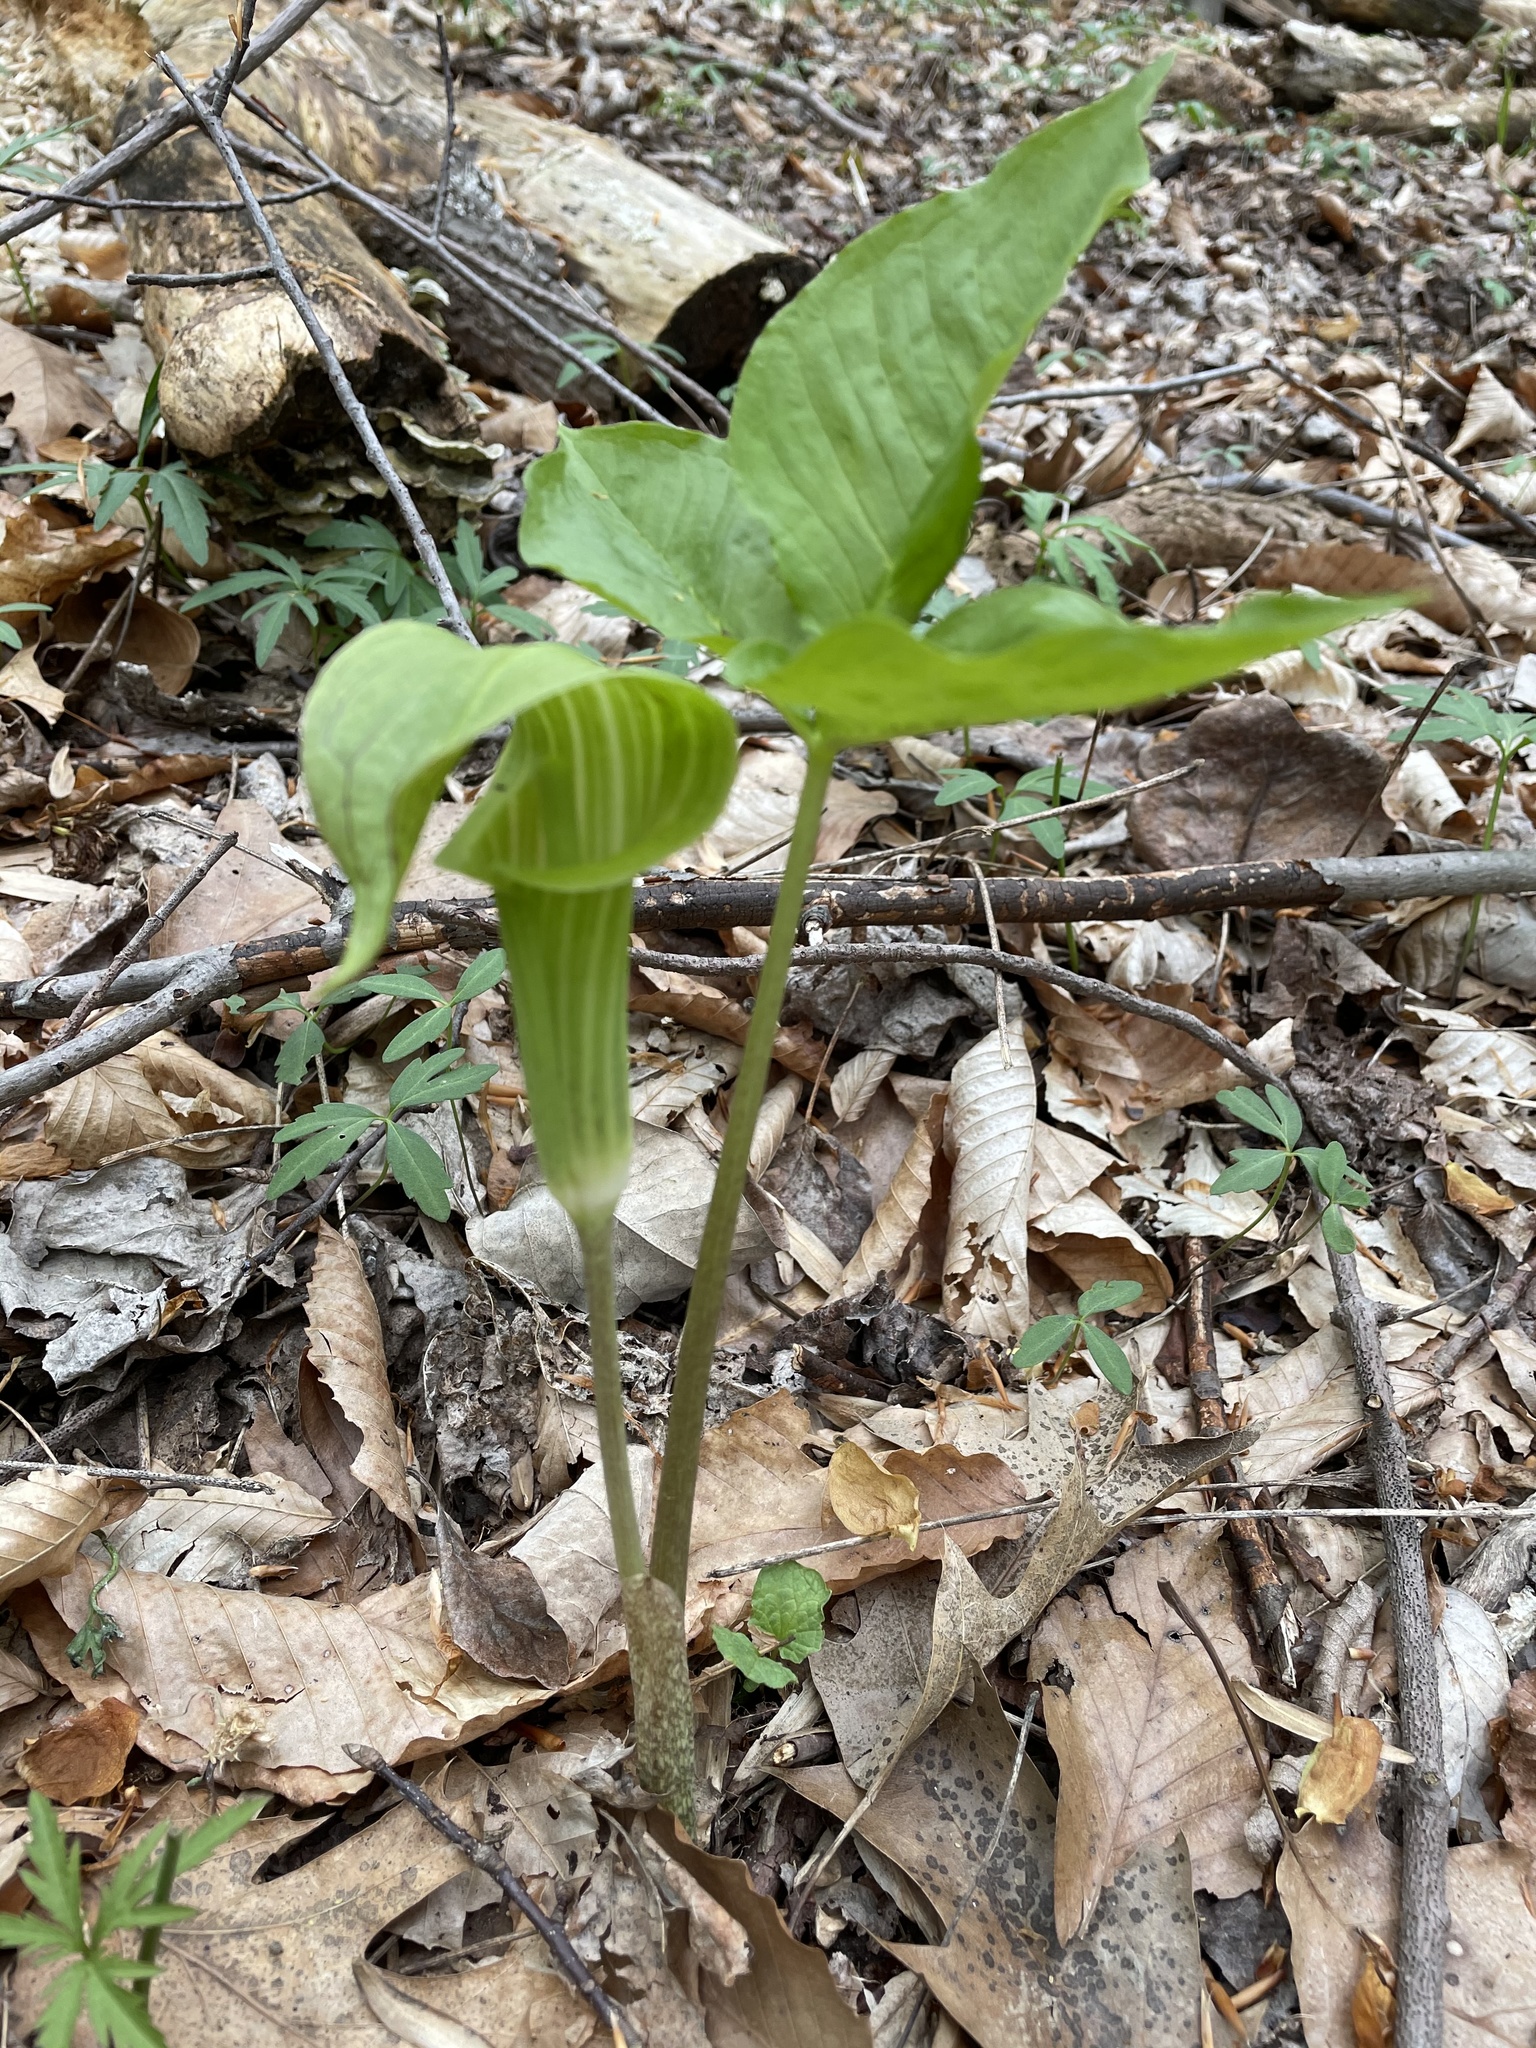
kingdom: Plantae
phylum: Tracheophyta
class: Liliopsida
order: Alismatales
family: Araceae
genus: Arisaema
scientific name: Arisaema triphyllum
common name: Jack-in-the-pulpit
